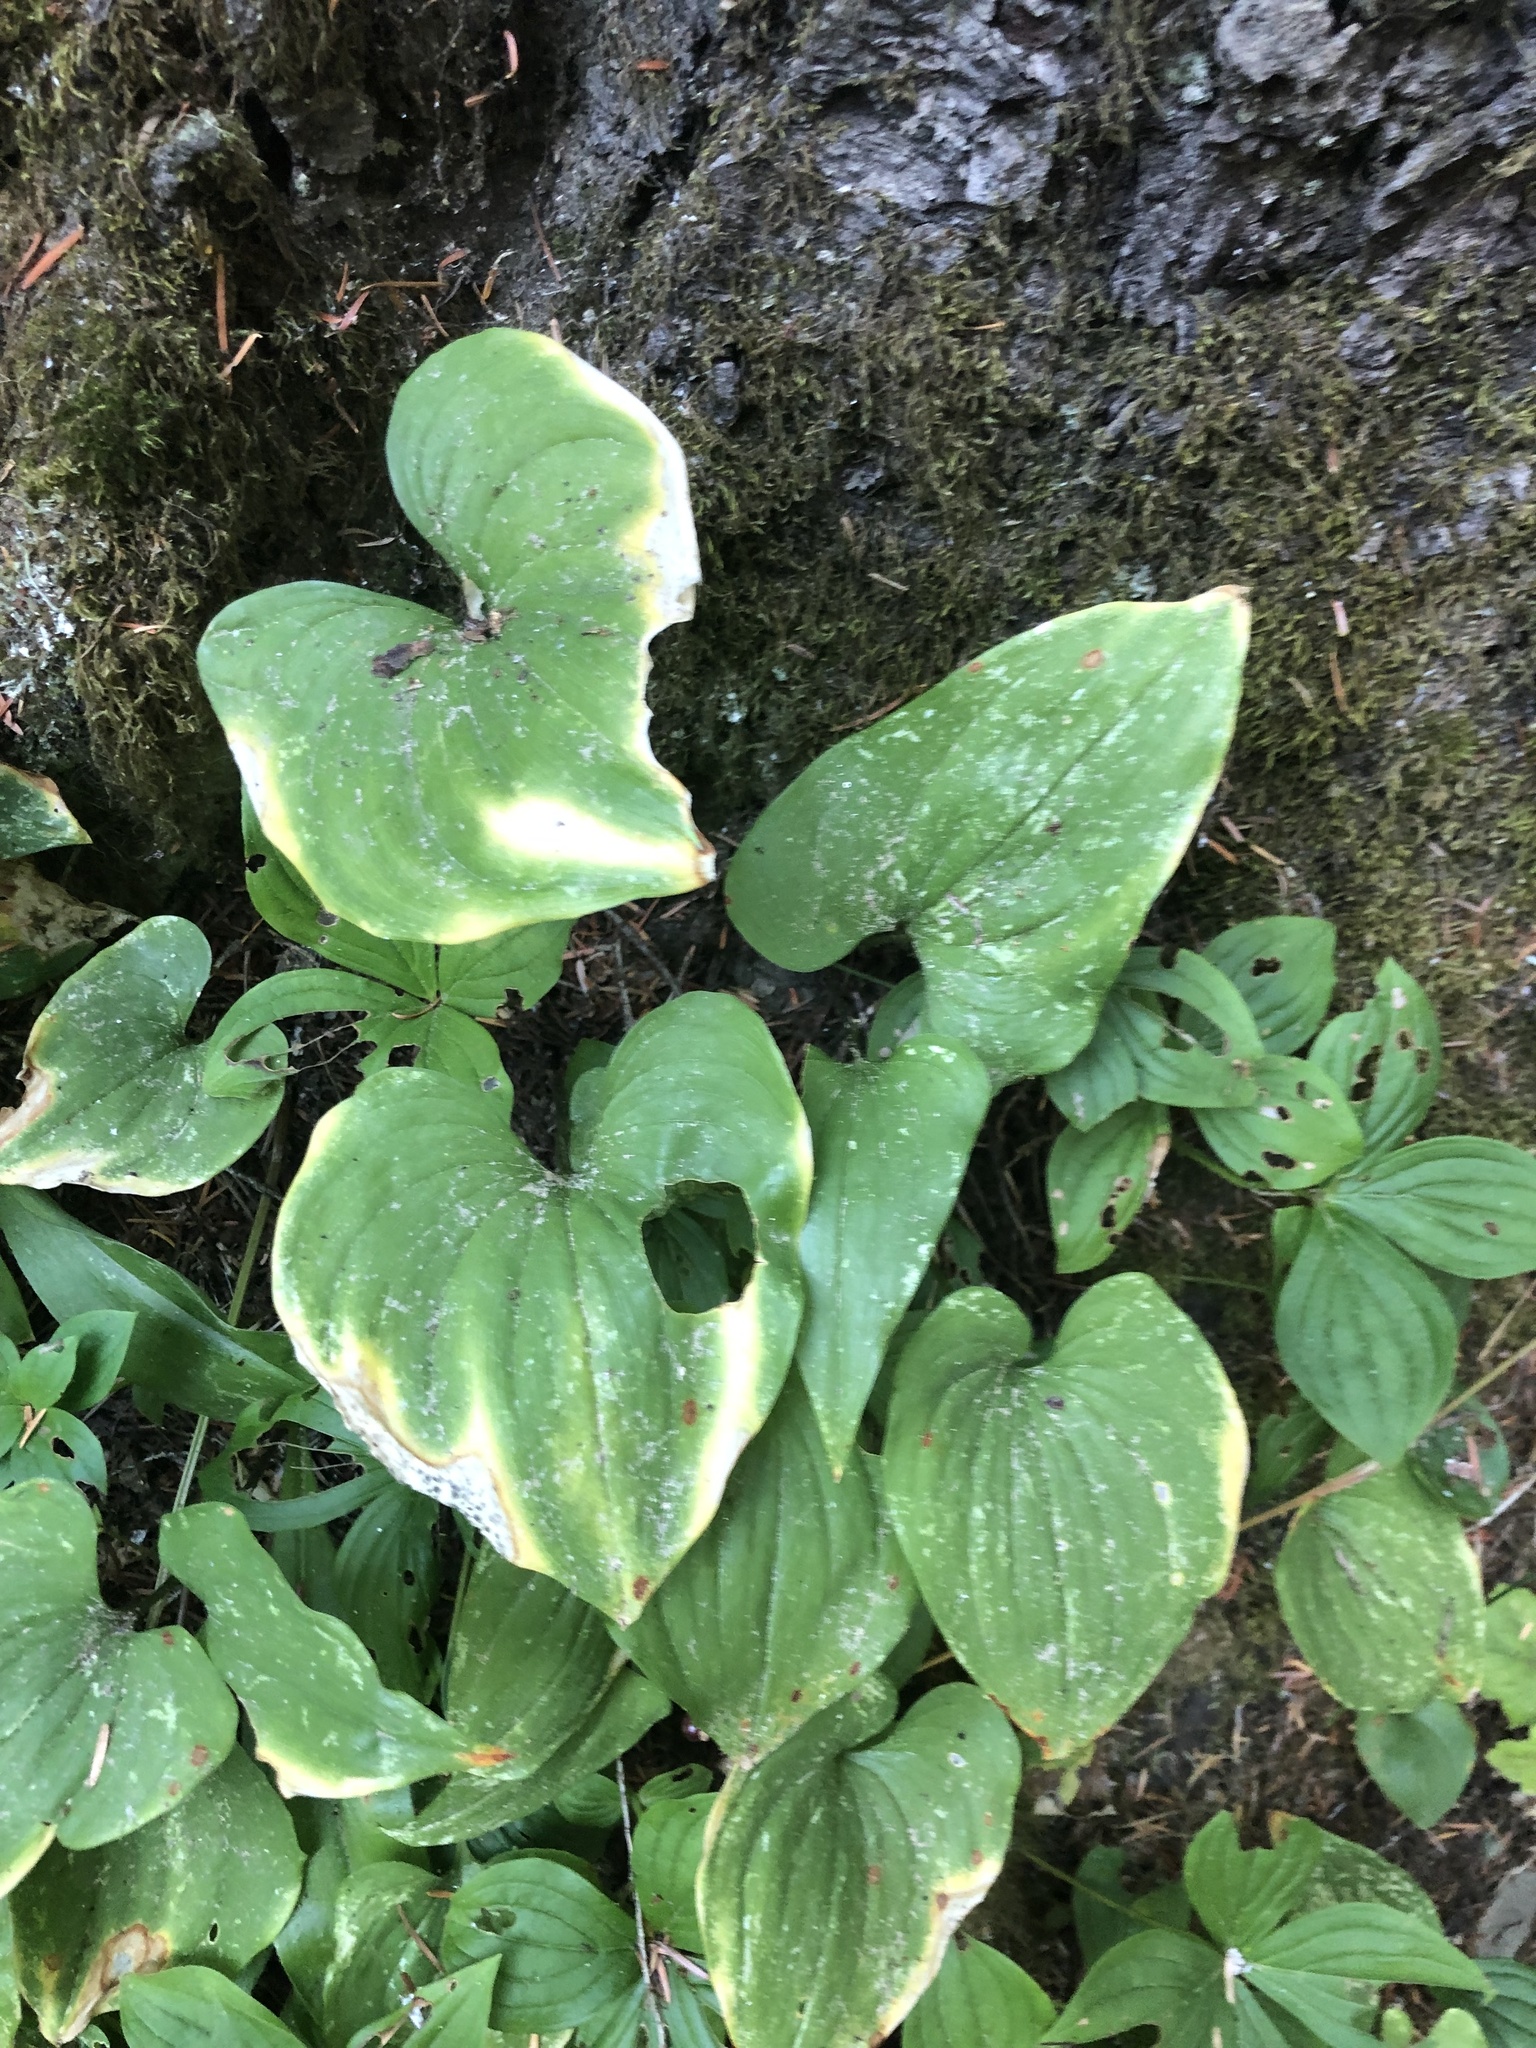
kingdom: Plantae
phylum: Tracheophyta
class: Liliopsida
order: Asparagales
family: Asparagaceae
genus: Maianthemum
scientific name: Maianthemum dilatatum
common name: False lily-of-the-valley
